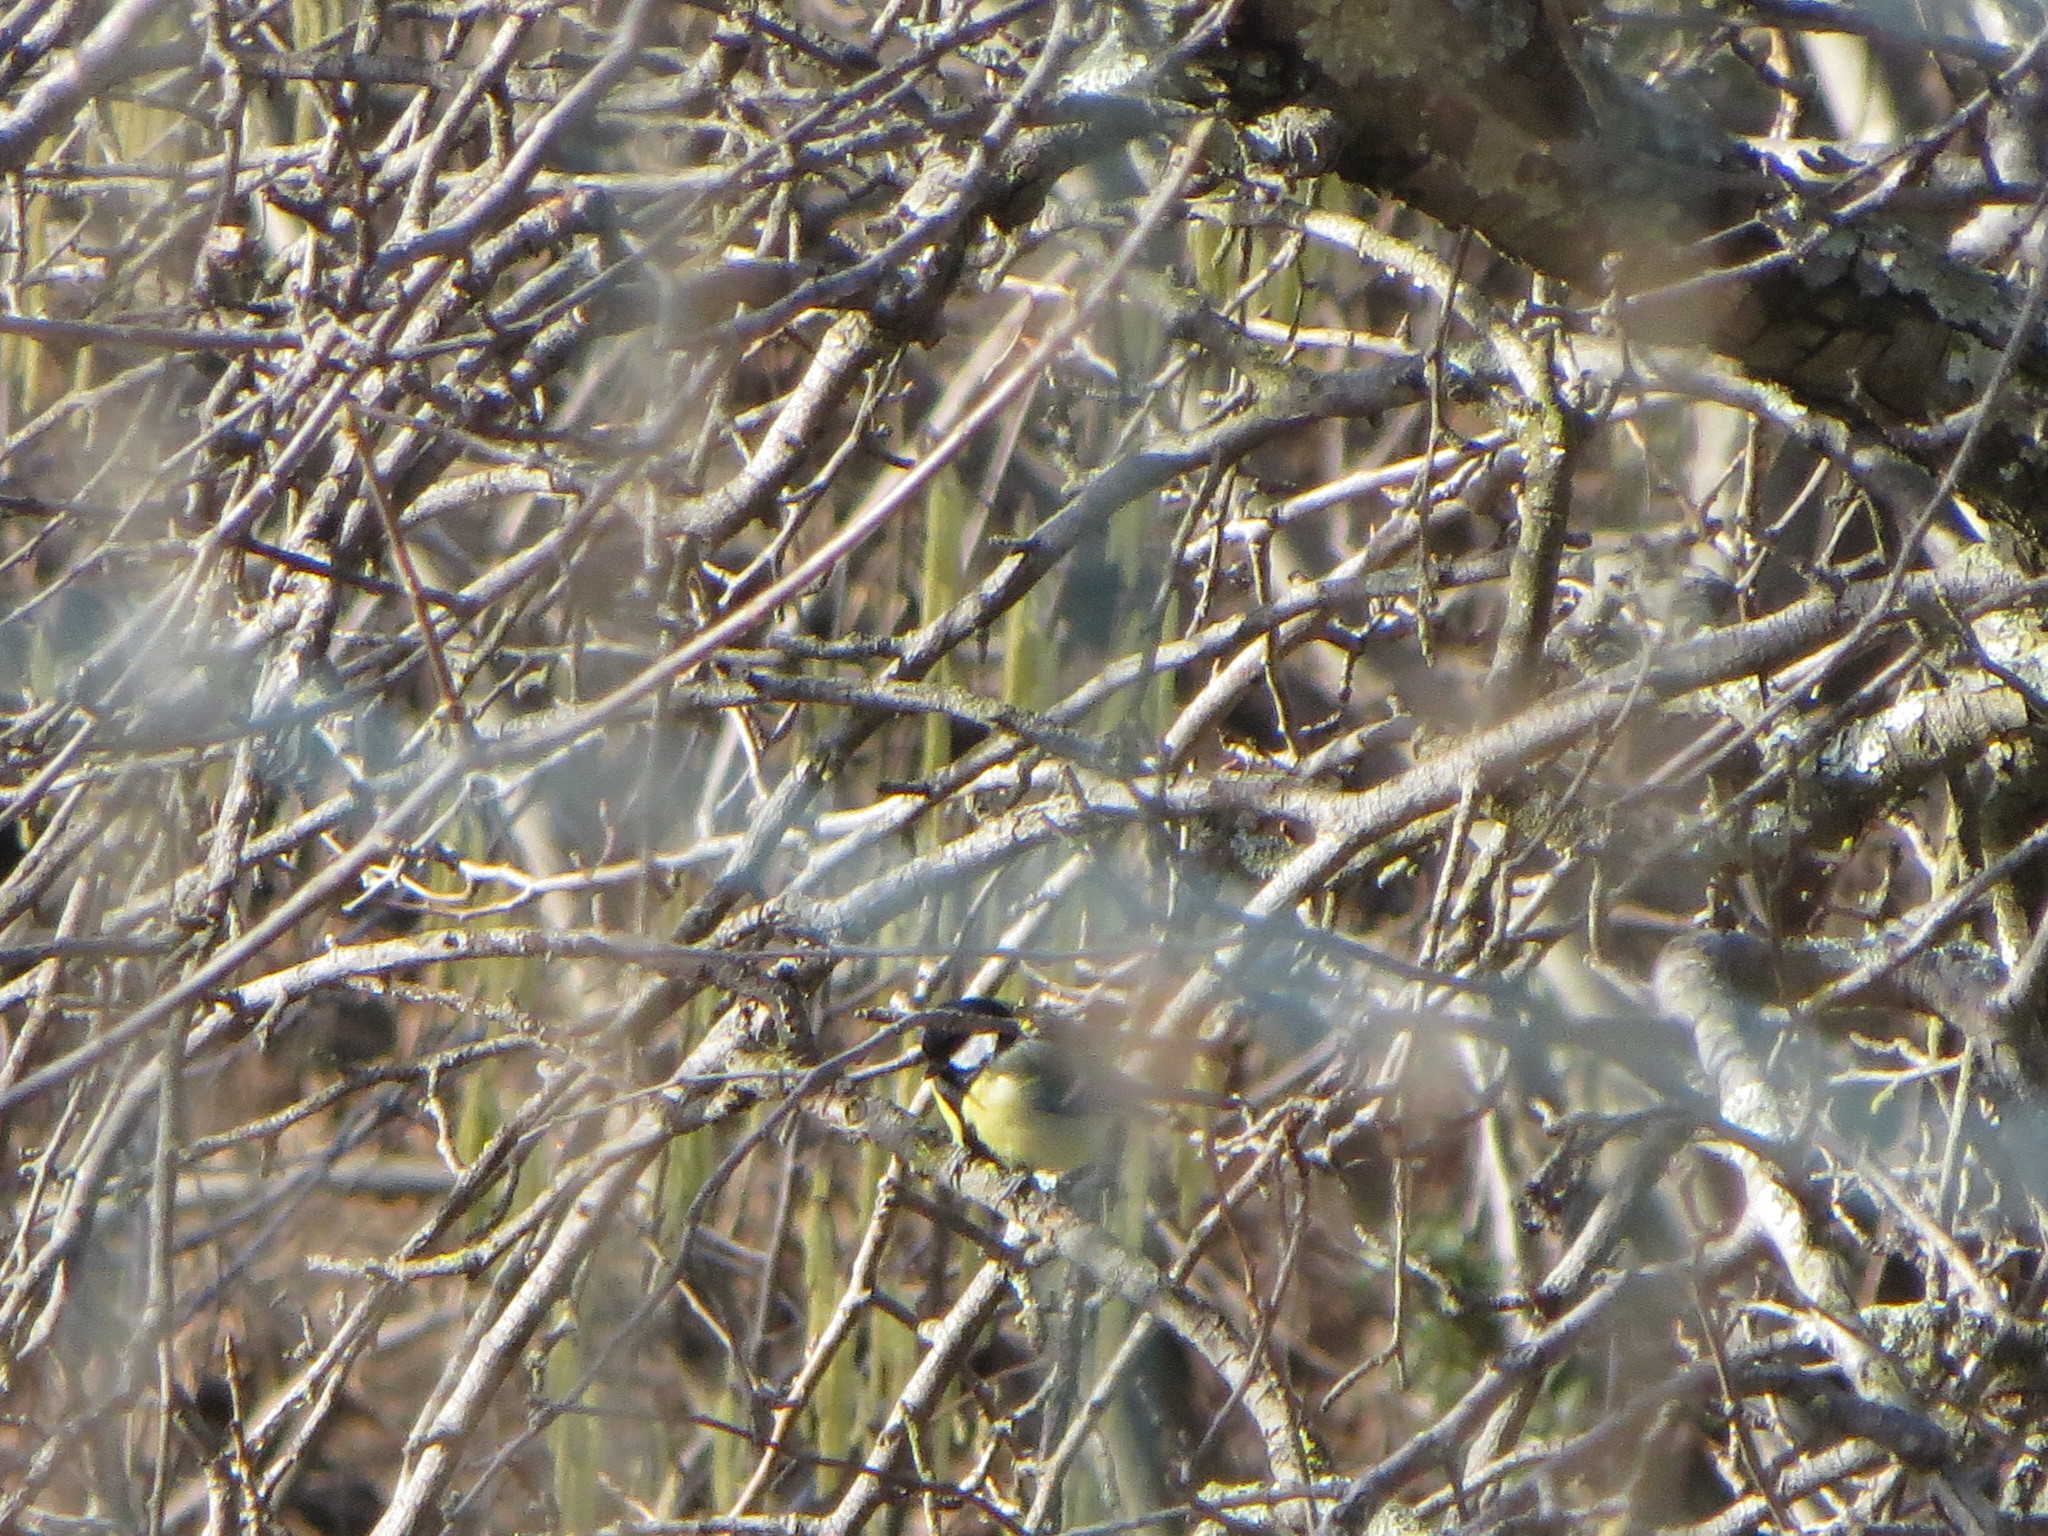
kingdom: Animalia
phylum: Chordata
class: Aves
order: Passeriformes
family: Paridae
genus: Parus
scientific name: Parus major
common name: Great tit
